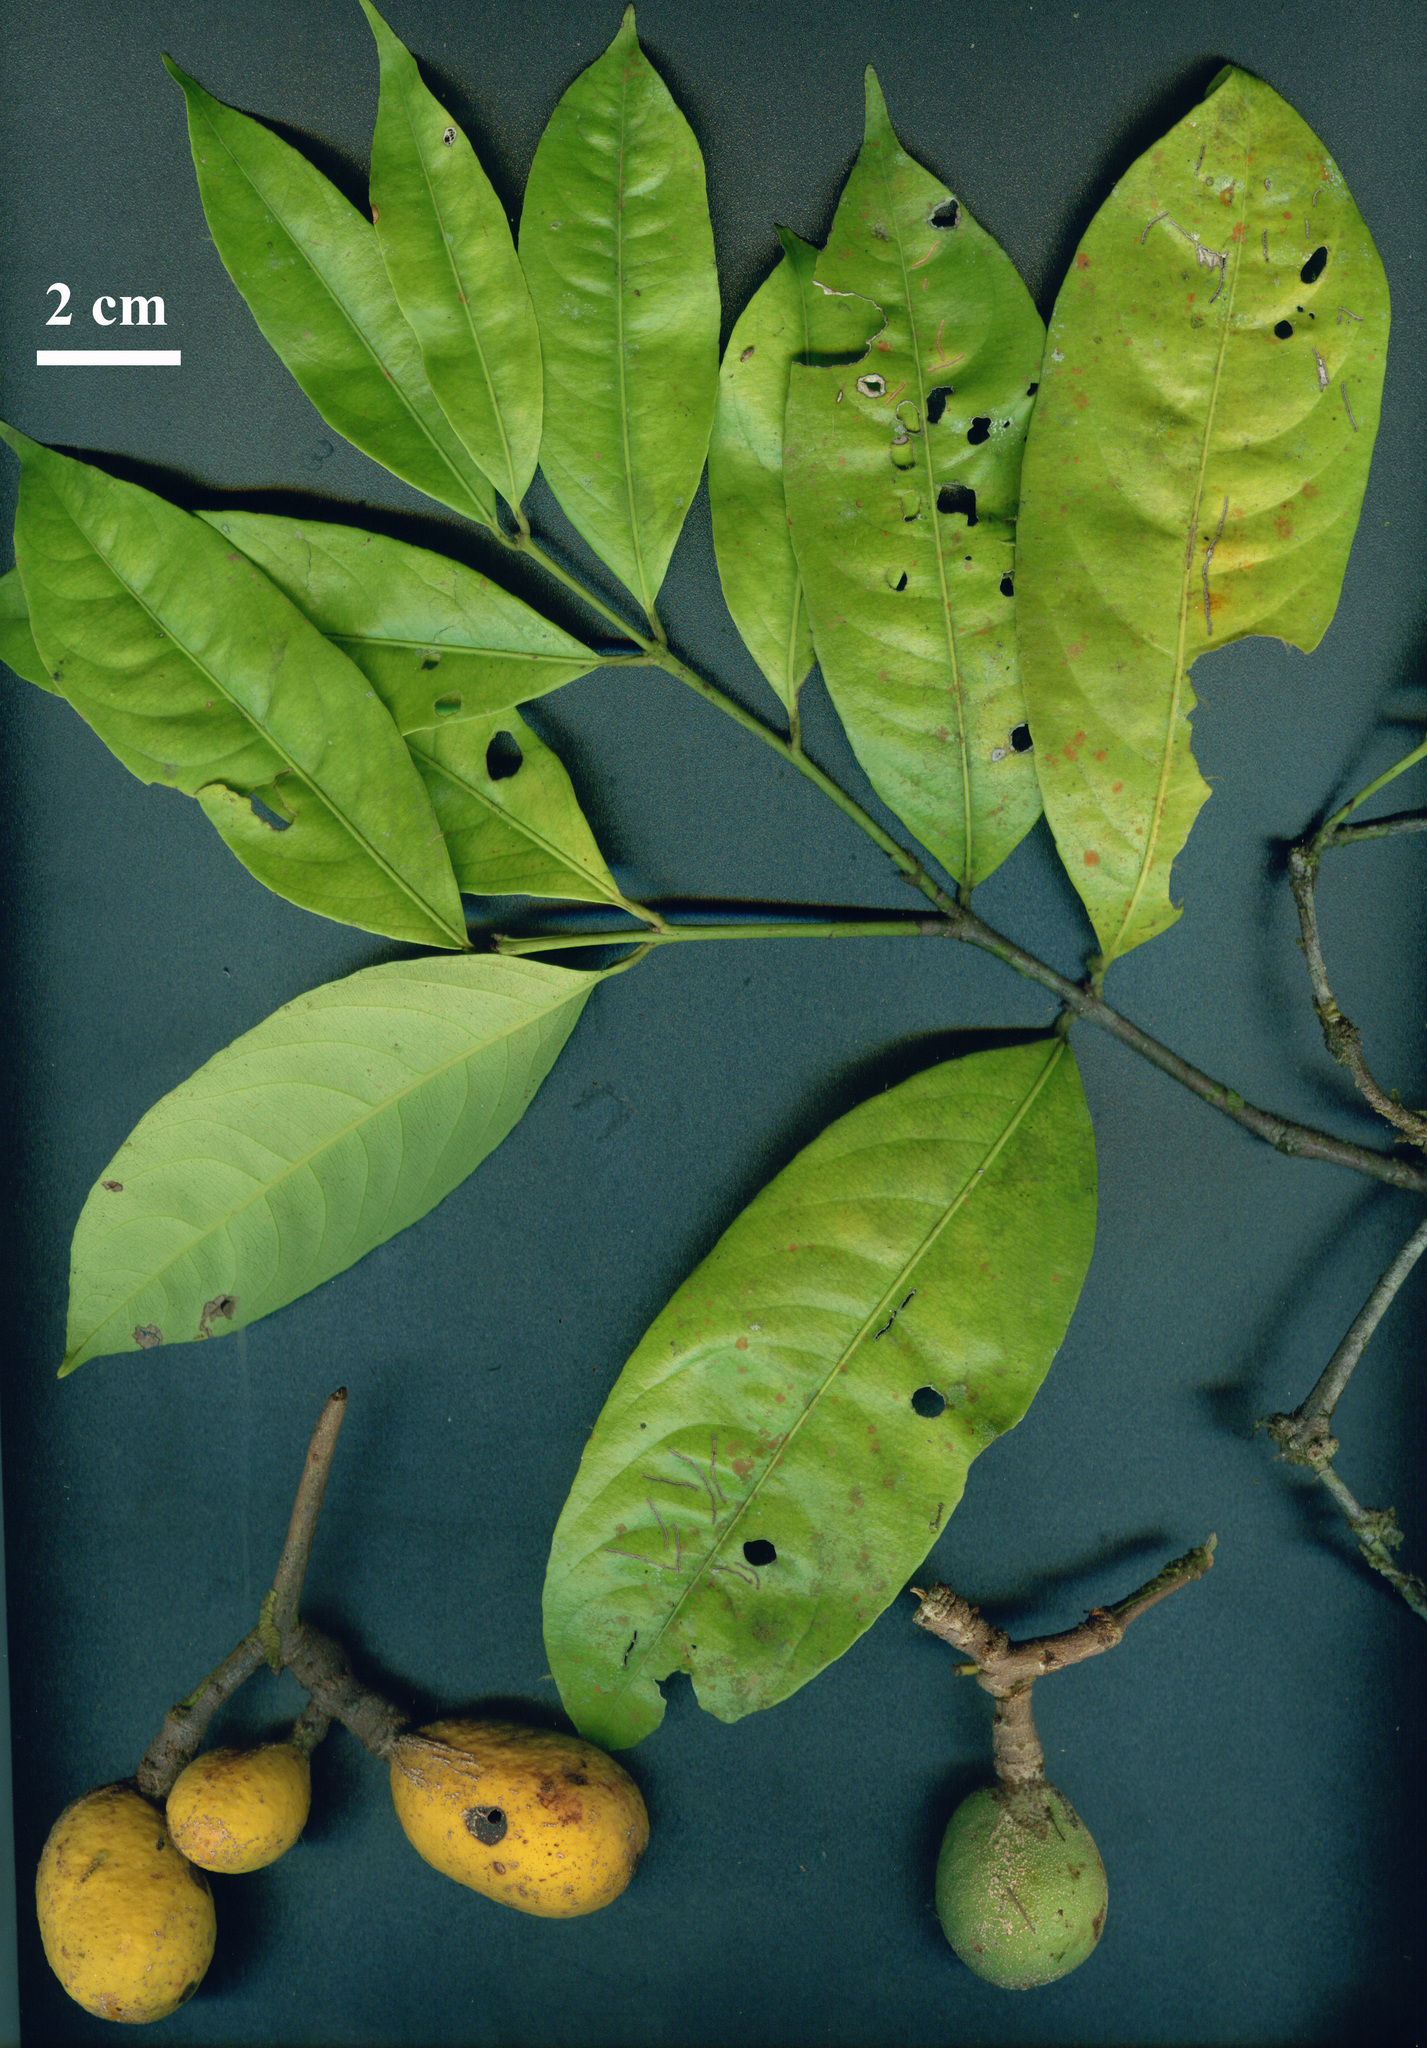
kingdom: Plantae
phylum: Tracheophyta
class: Magnoliopsida
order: Celastrales
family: Celastraceae
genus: Cheiloclinium
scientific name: Cheiloclinium cognatum
